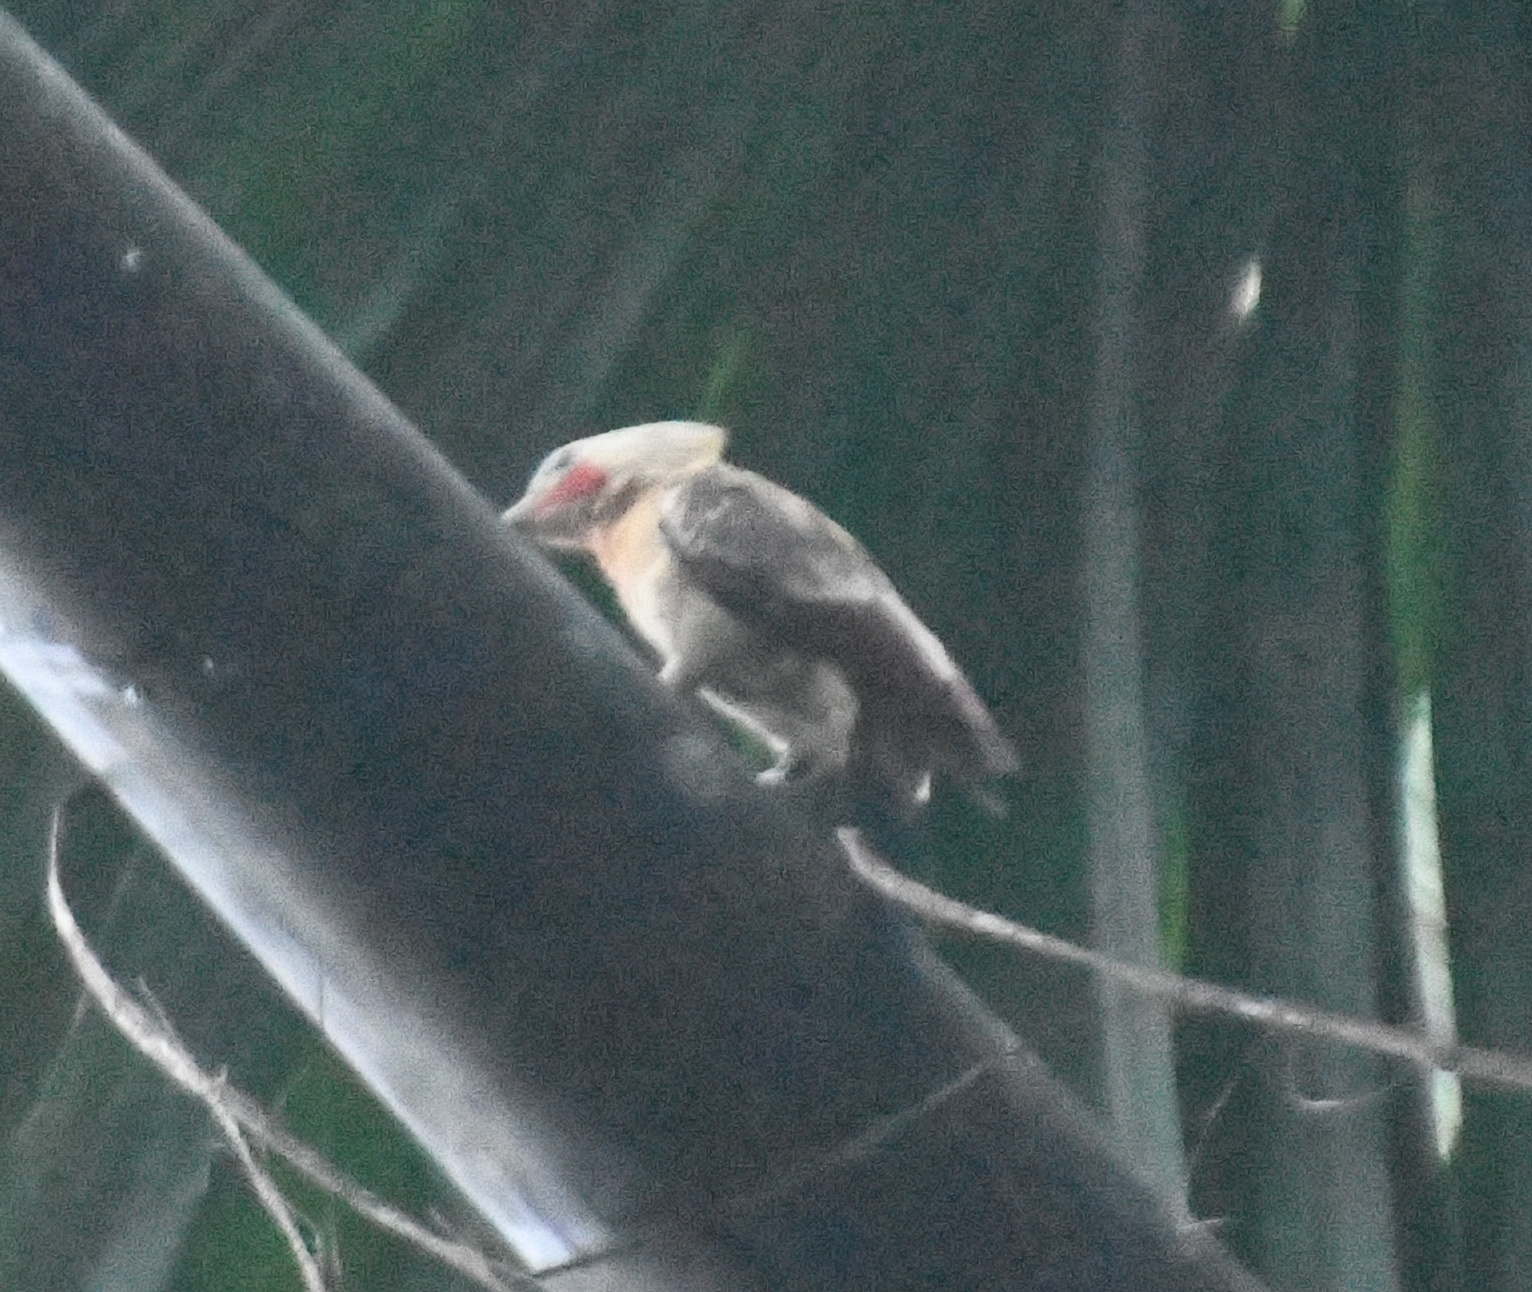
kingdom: Animalia
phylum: Chordata
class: Aves
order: Piciformes
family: Picidae
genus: Celeus
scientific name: Celeus flavus
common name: Cream-colored woodpecker
